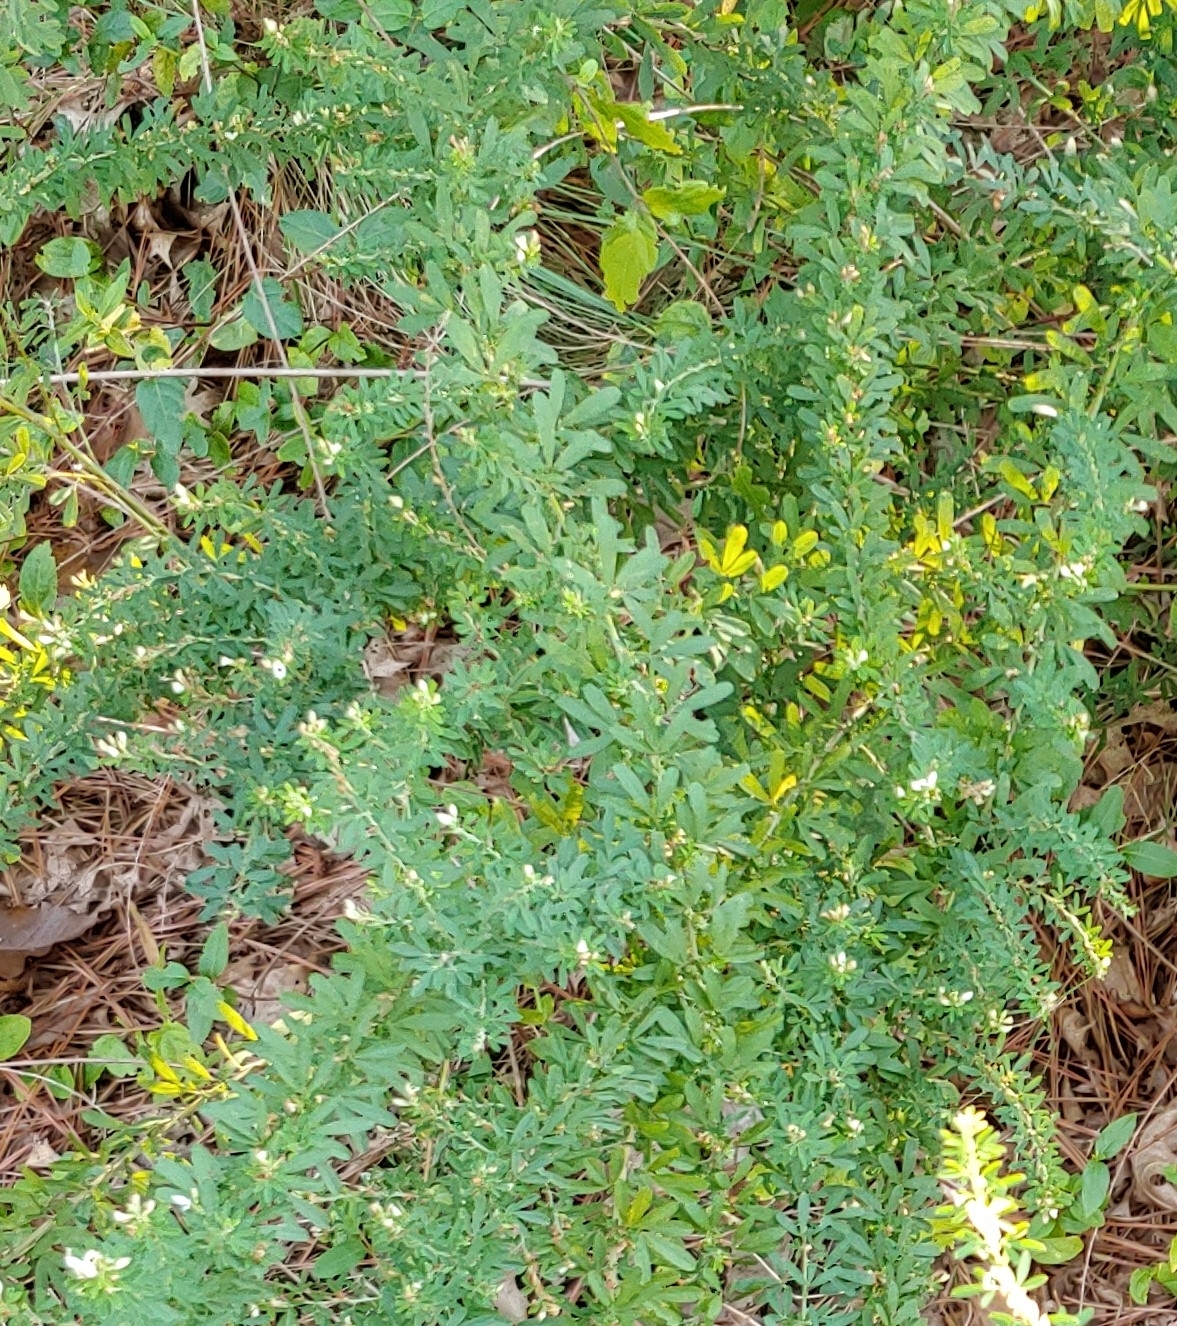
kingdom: Plantae
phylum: Tracheophyta
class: Magnoliopsida
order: Fabales
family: Fabaceae
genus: Lespedeza
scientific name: Lespedeza cuneata
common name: Chinese bush-clover
